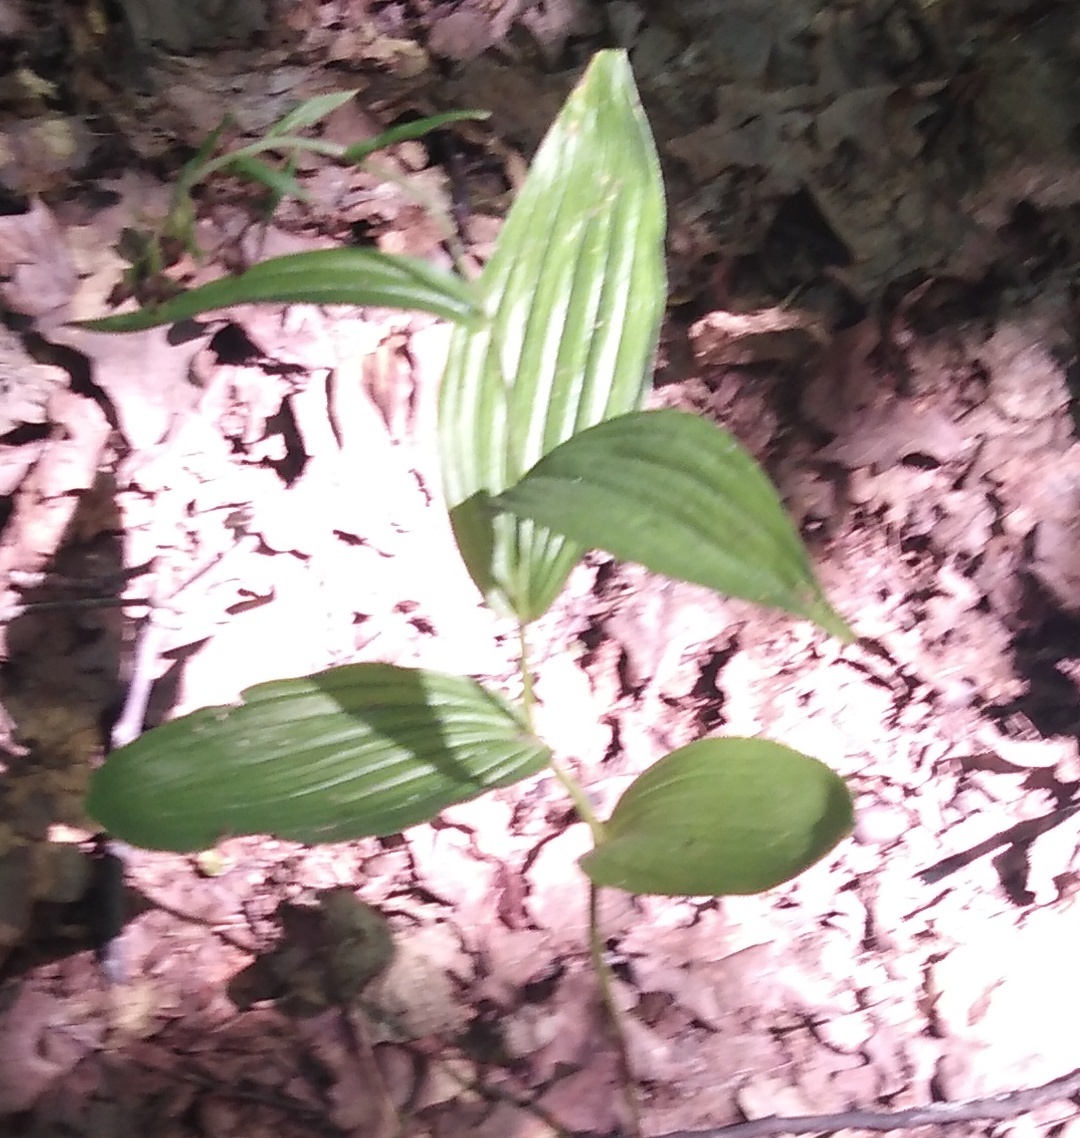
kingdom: Plantae
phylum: Tracheophyta
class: Liliopsida
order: Asparagales
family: Orchidaceae
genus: Epipactis
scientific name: Epipactis helleborine
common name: Broad-leaved helleborine
